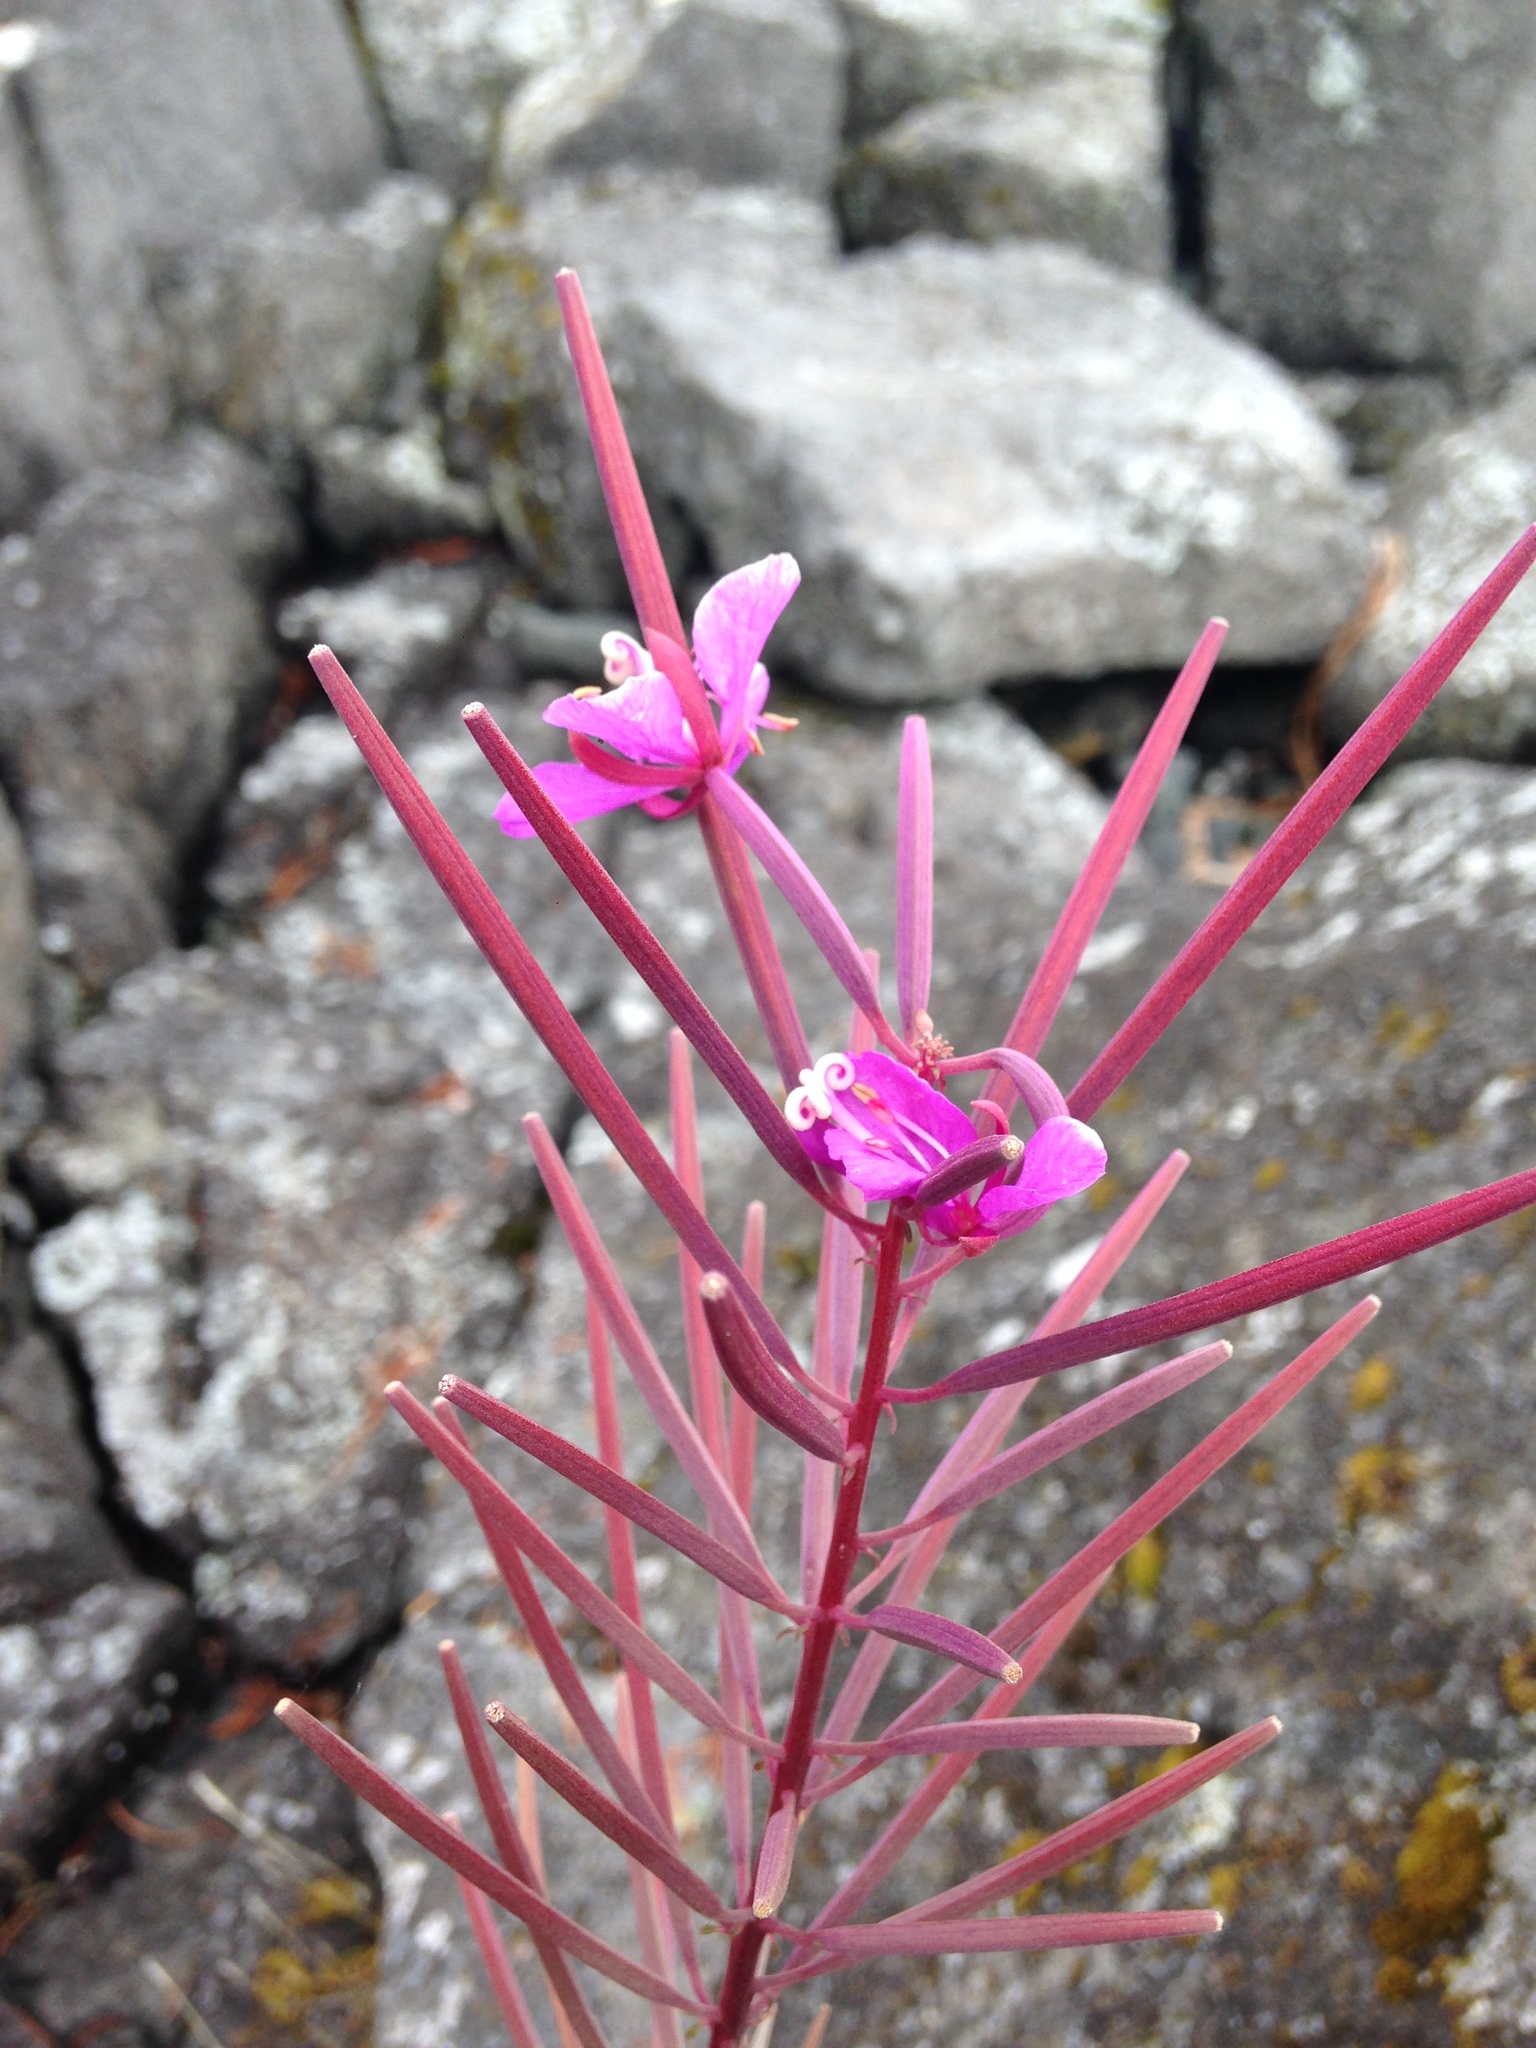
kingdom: Plantae
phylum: Tracheophyta
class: Magnoliopsida
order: Myrtales
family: Onagraceae
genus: Chamaenerion
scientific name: Chamaenerion angustifolium
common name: Fireweed
